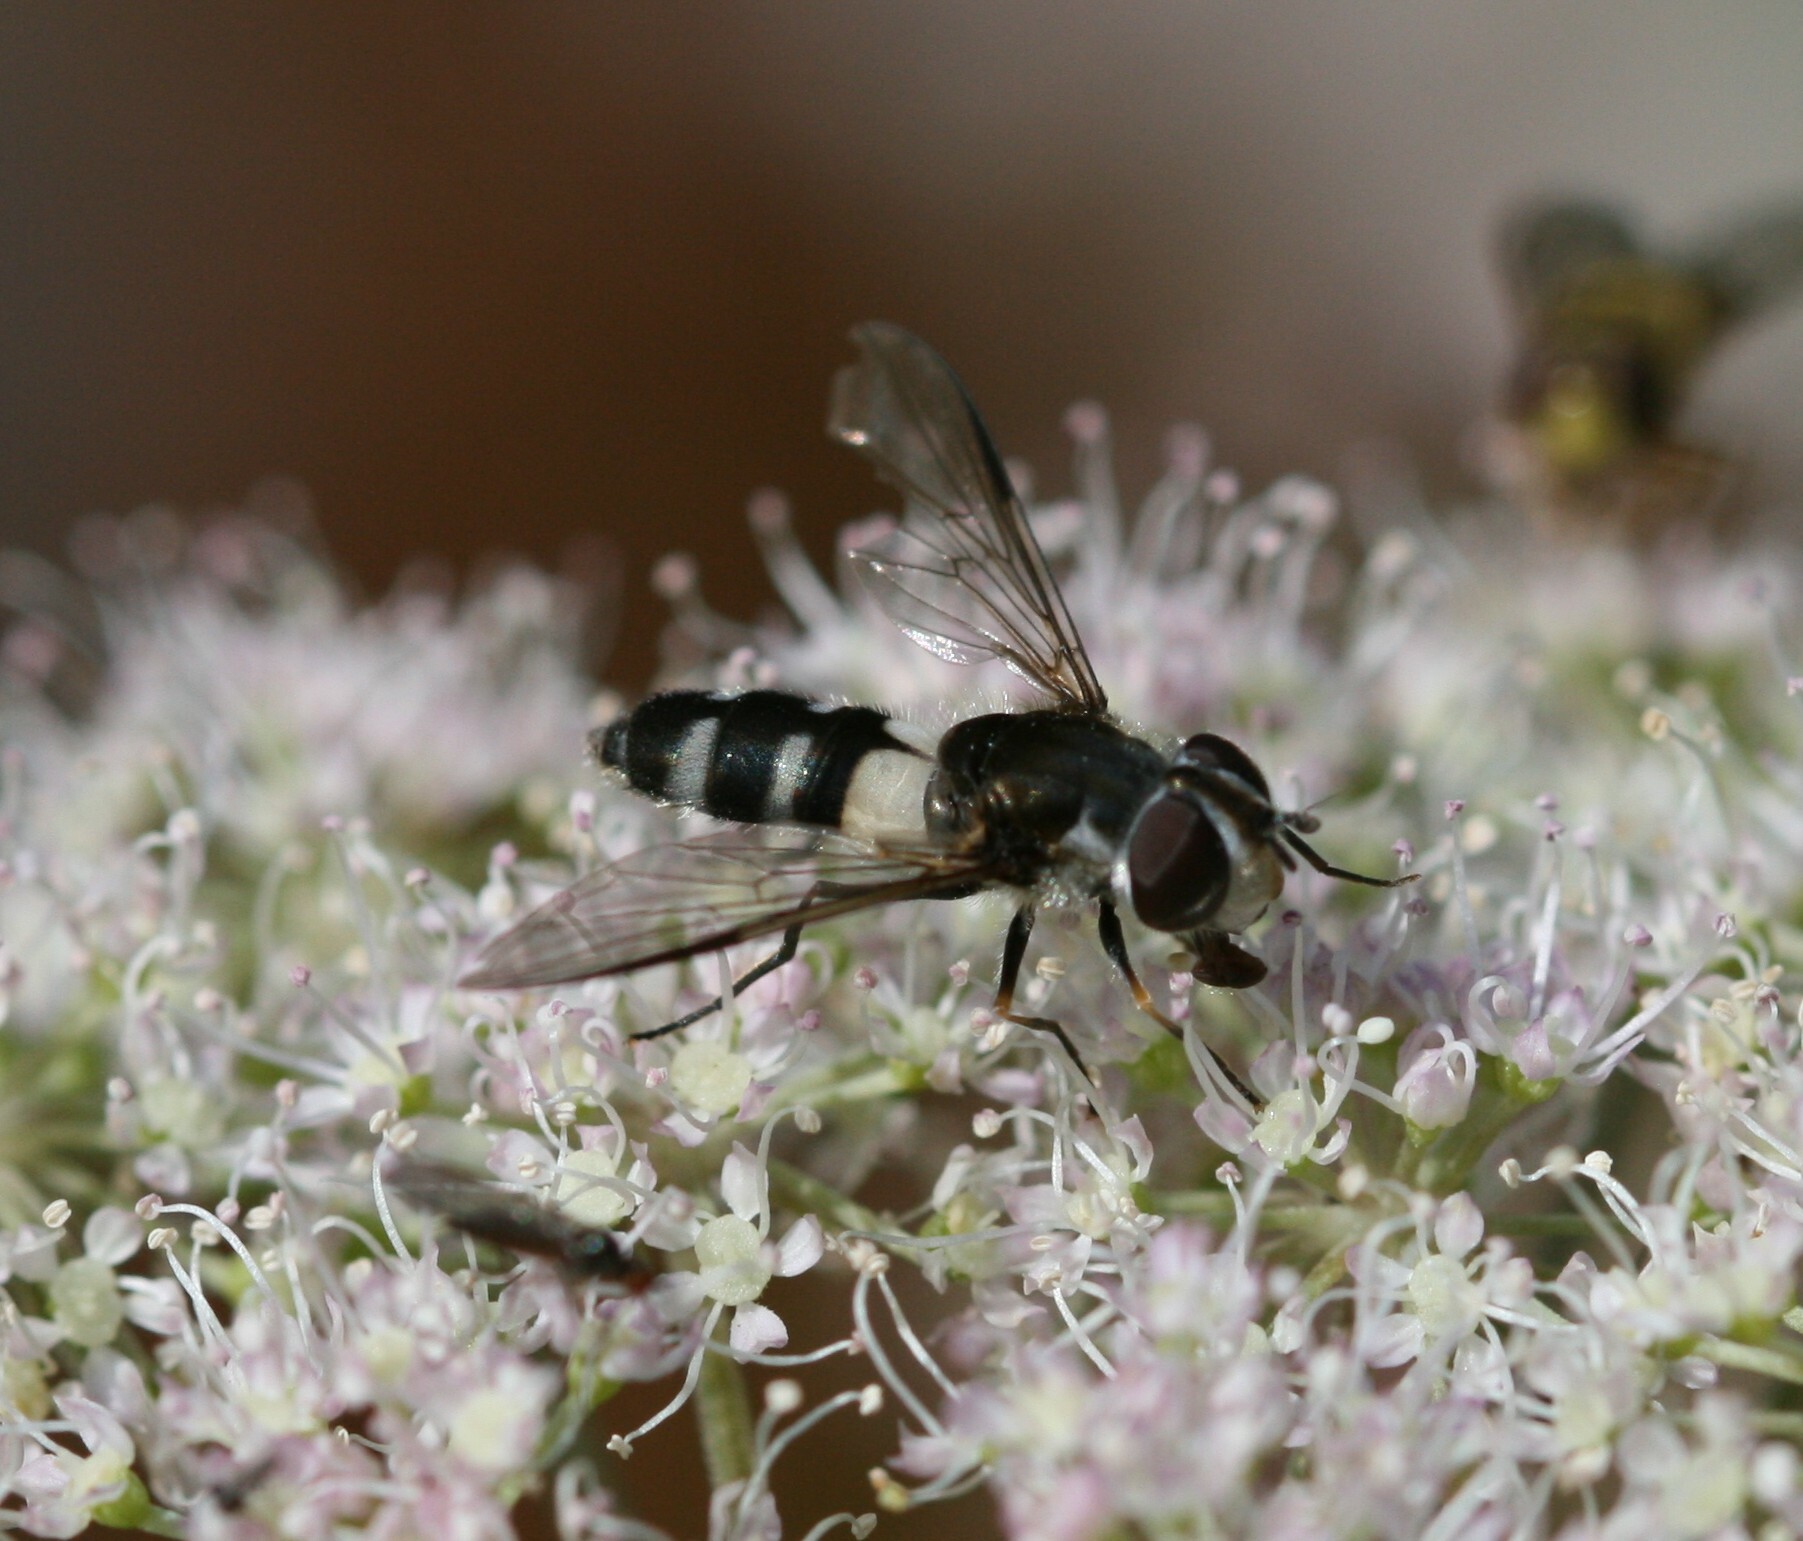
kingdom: Animalia
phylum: Arthropoda
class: Insecta
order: Diptera
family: Syrphidae
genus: Leucozona
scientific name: Leucozona laternaria
